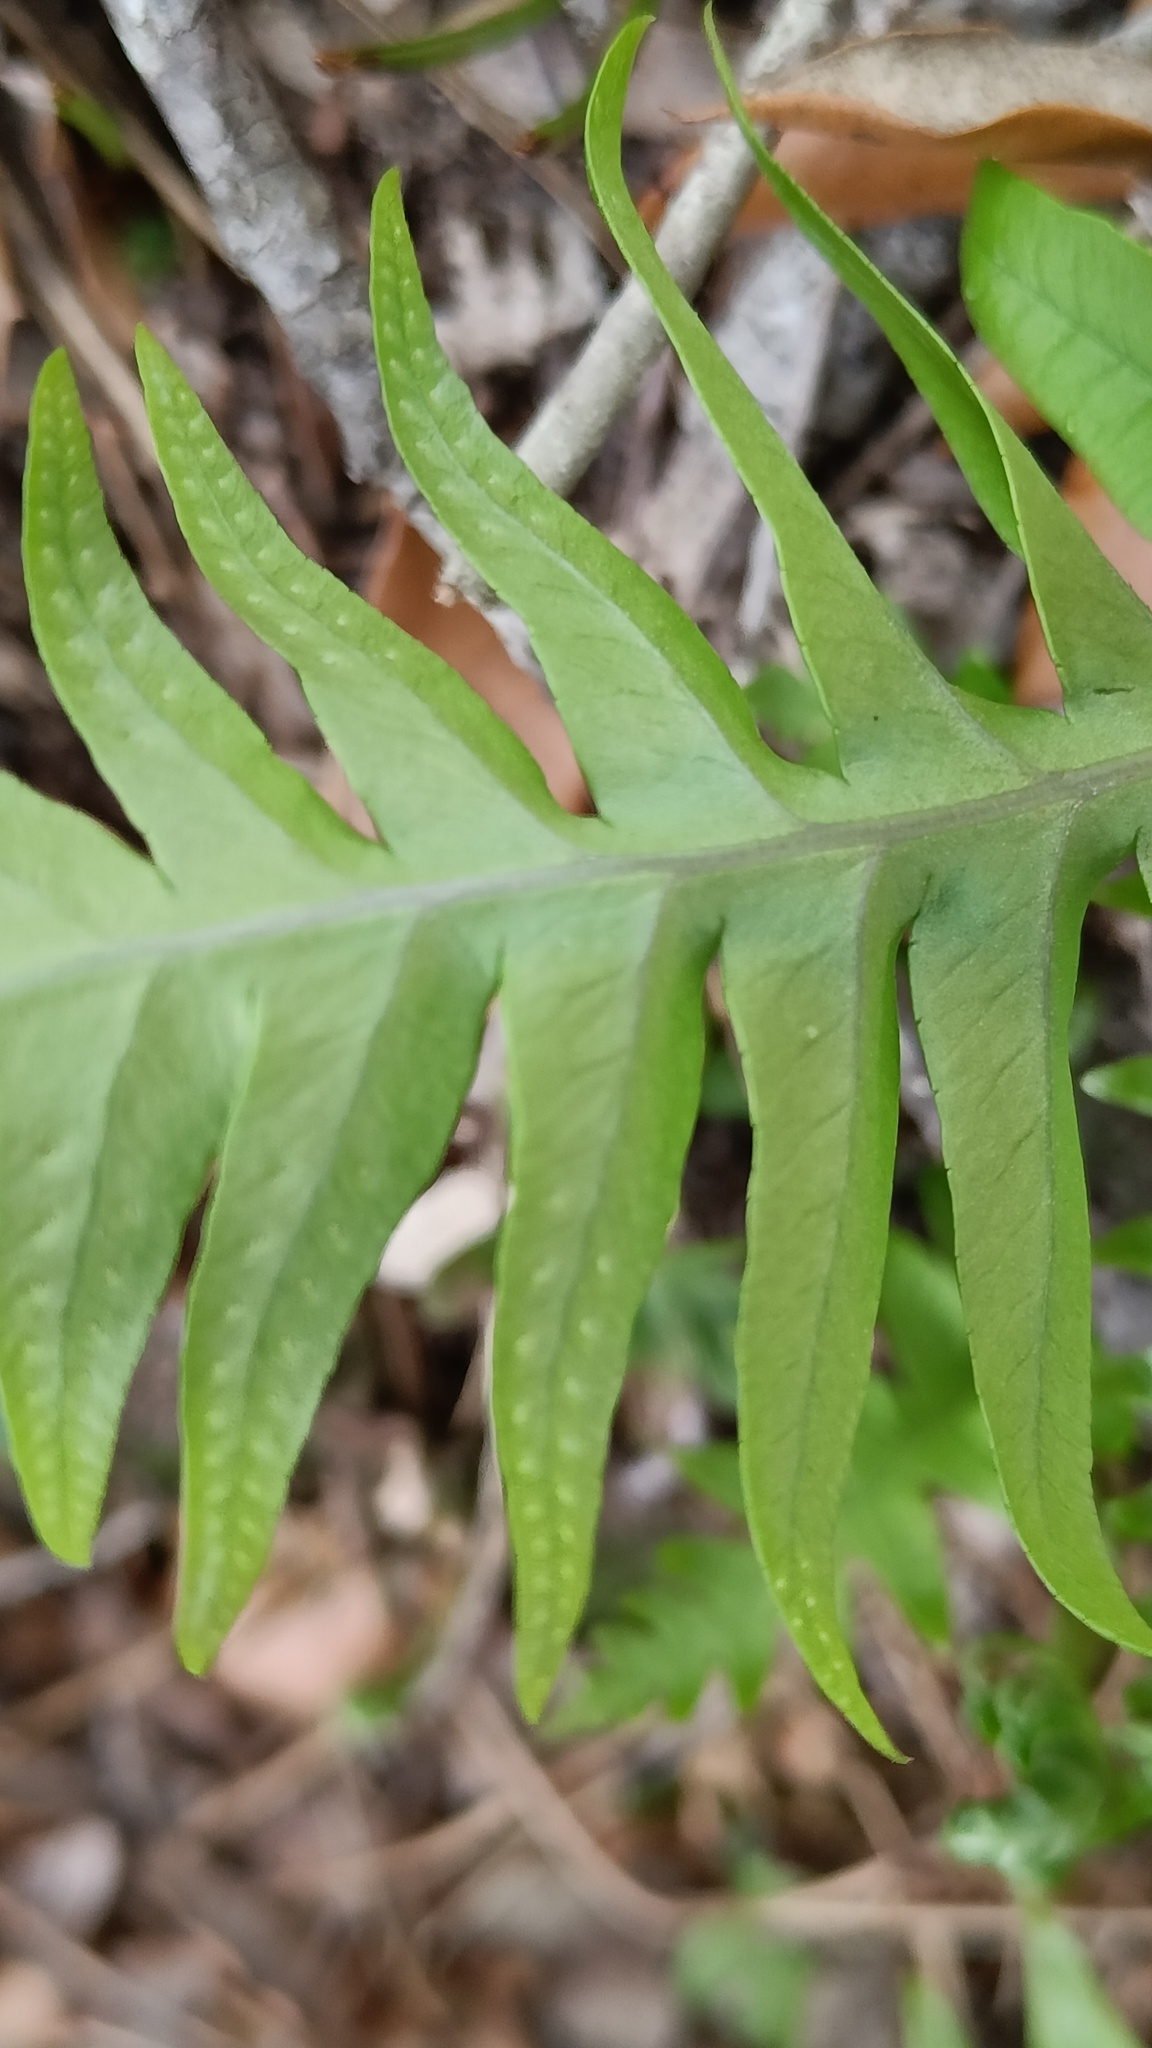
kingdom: Plantae
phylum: Tracheophyta
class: Polypodiopsida
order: Polypodiales
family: Polypodiaceae
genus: Polypodium
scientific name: Polypodium cambricum
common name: Southern polypody
